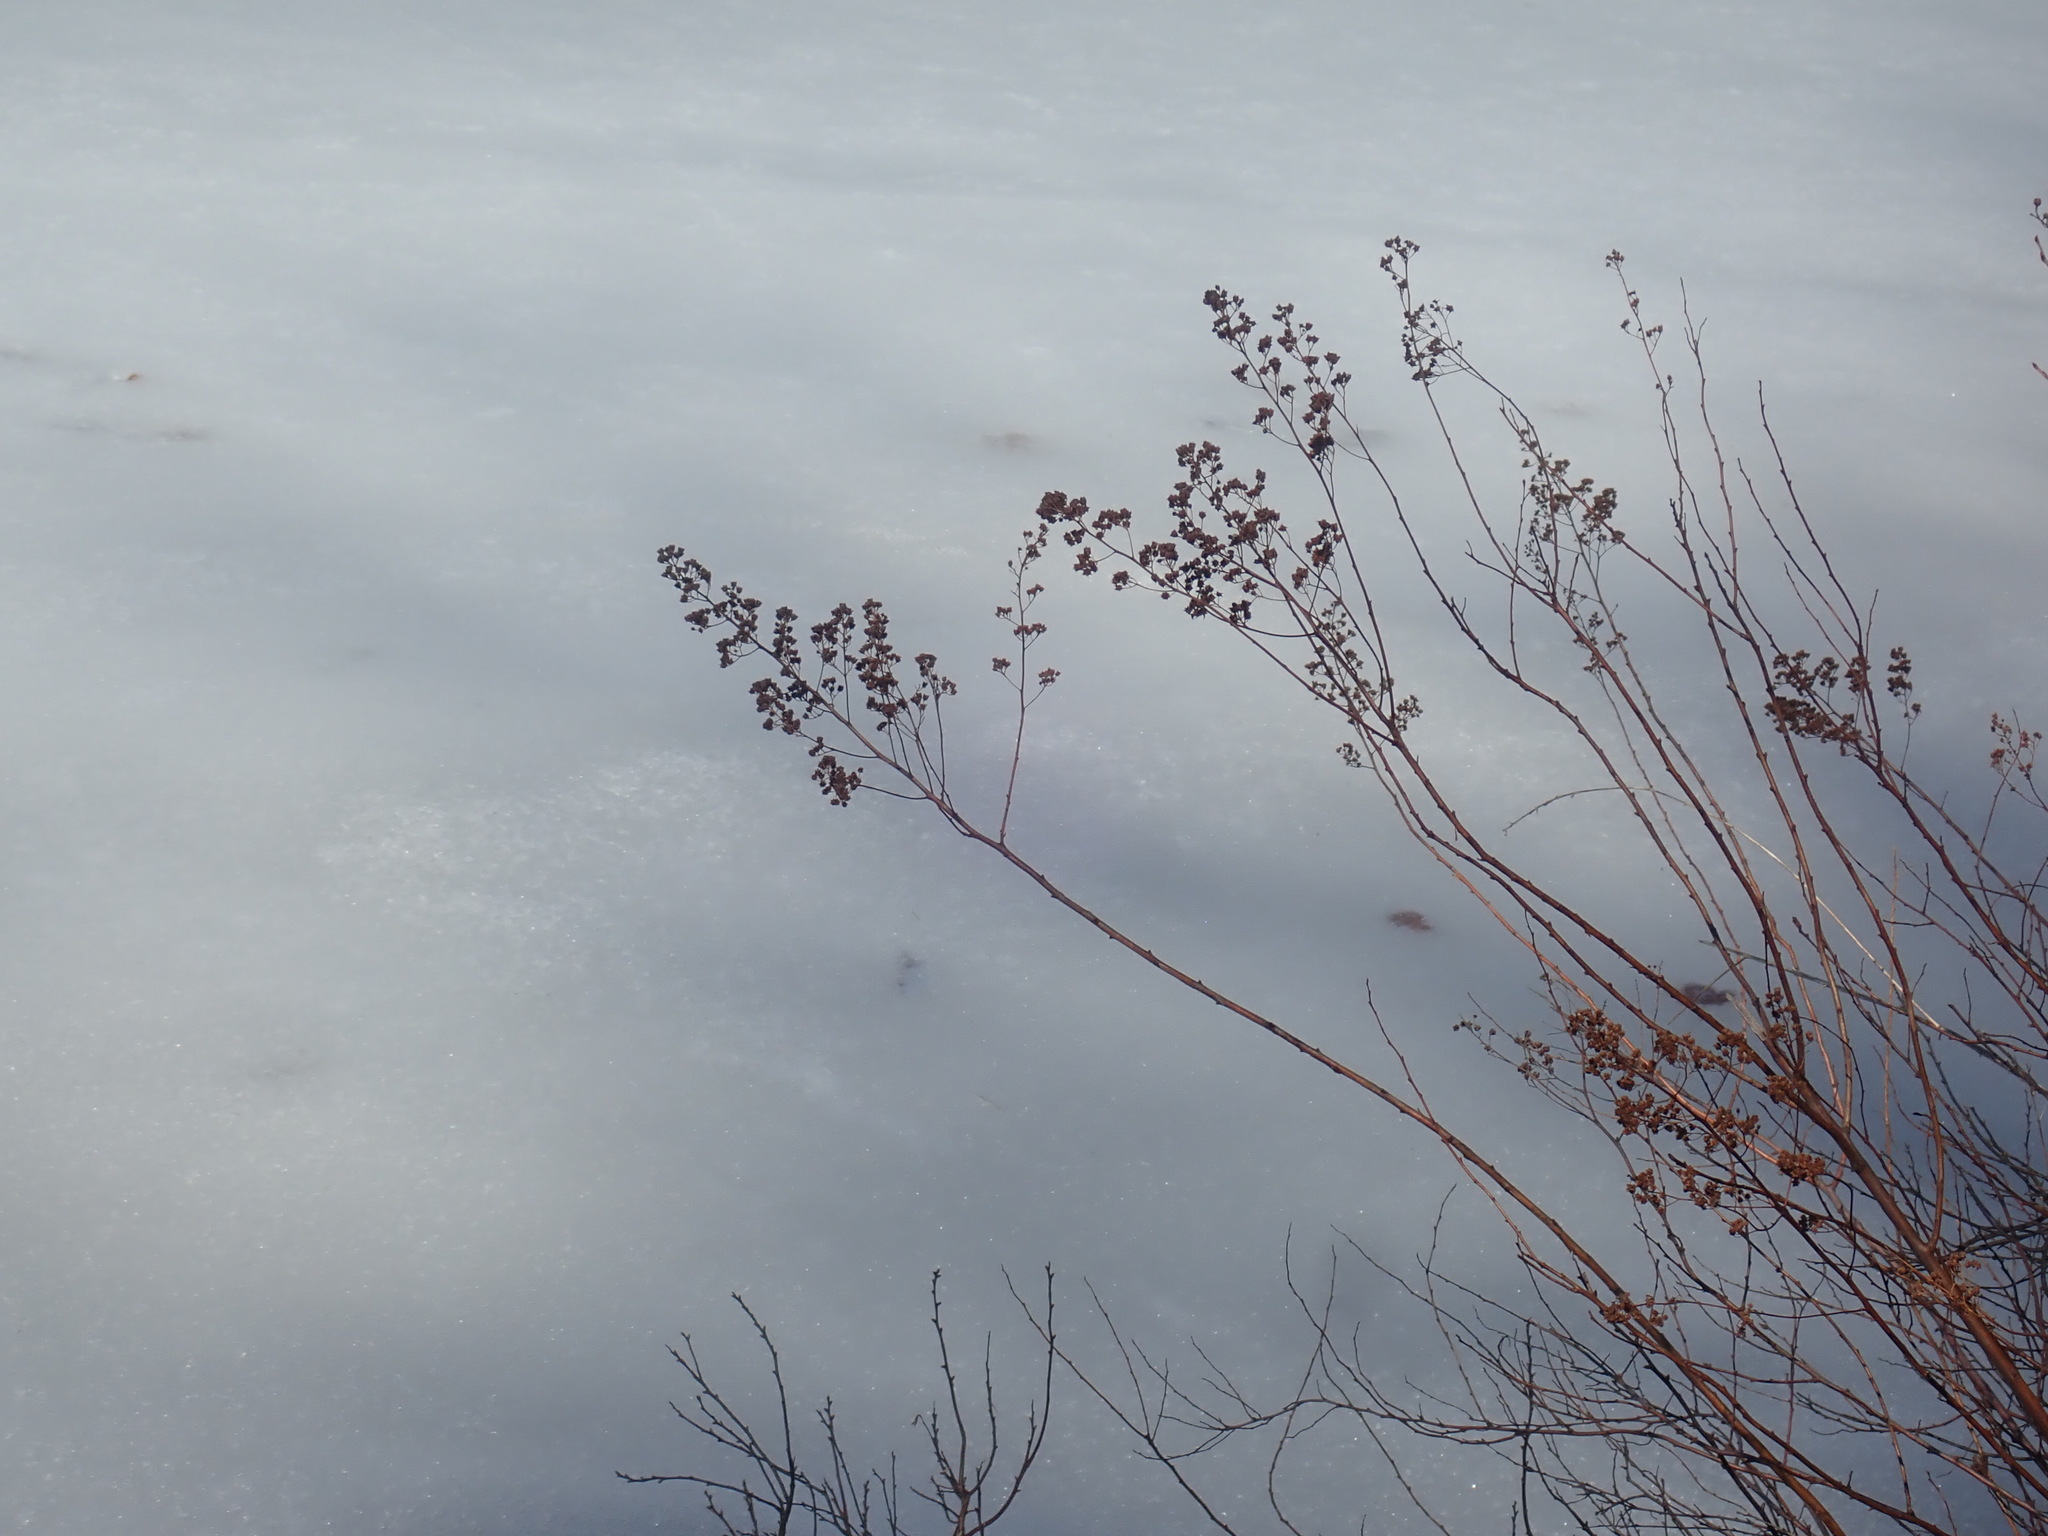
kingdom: Plantae
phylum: Tracheophyta
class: Magnoliopsida
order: Rosales
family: Rosaceae
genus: Spiraea
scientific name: Spiraea alba
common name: Pale bridewort
